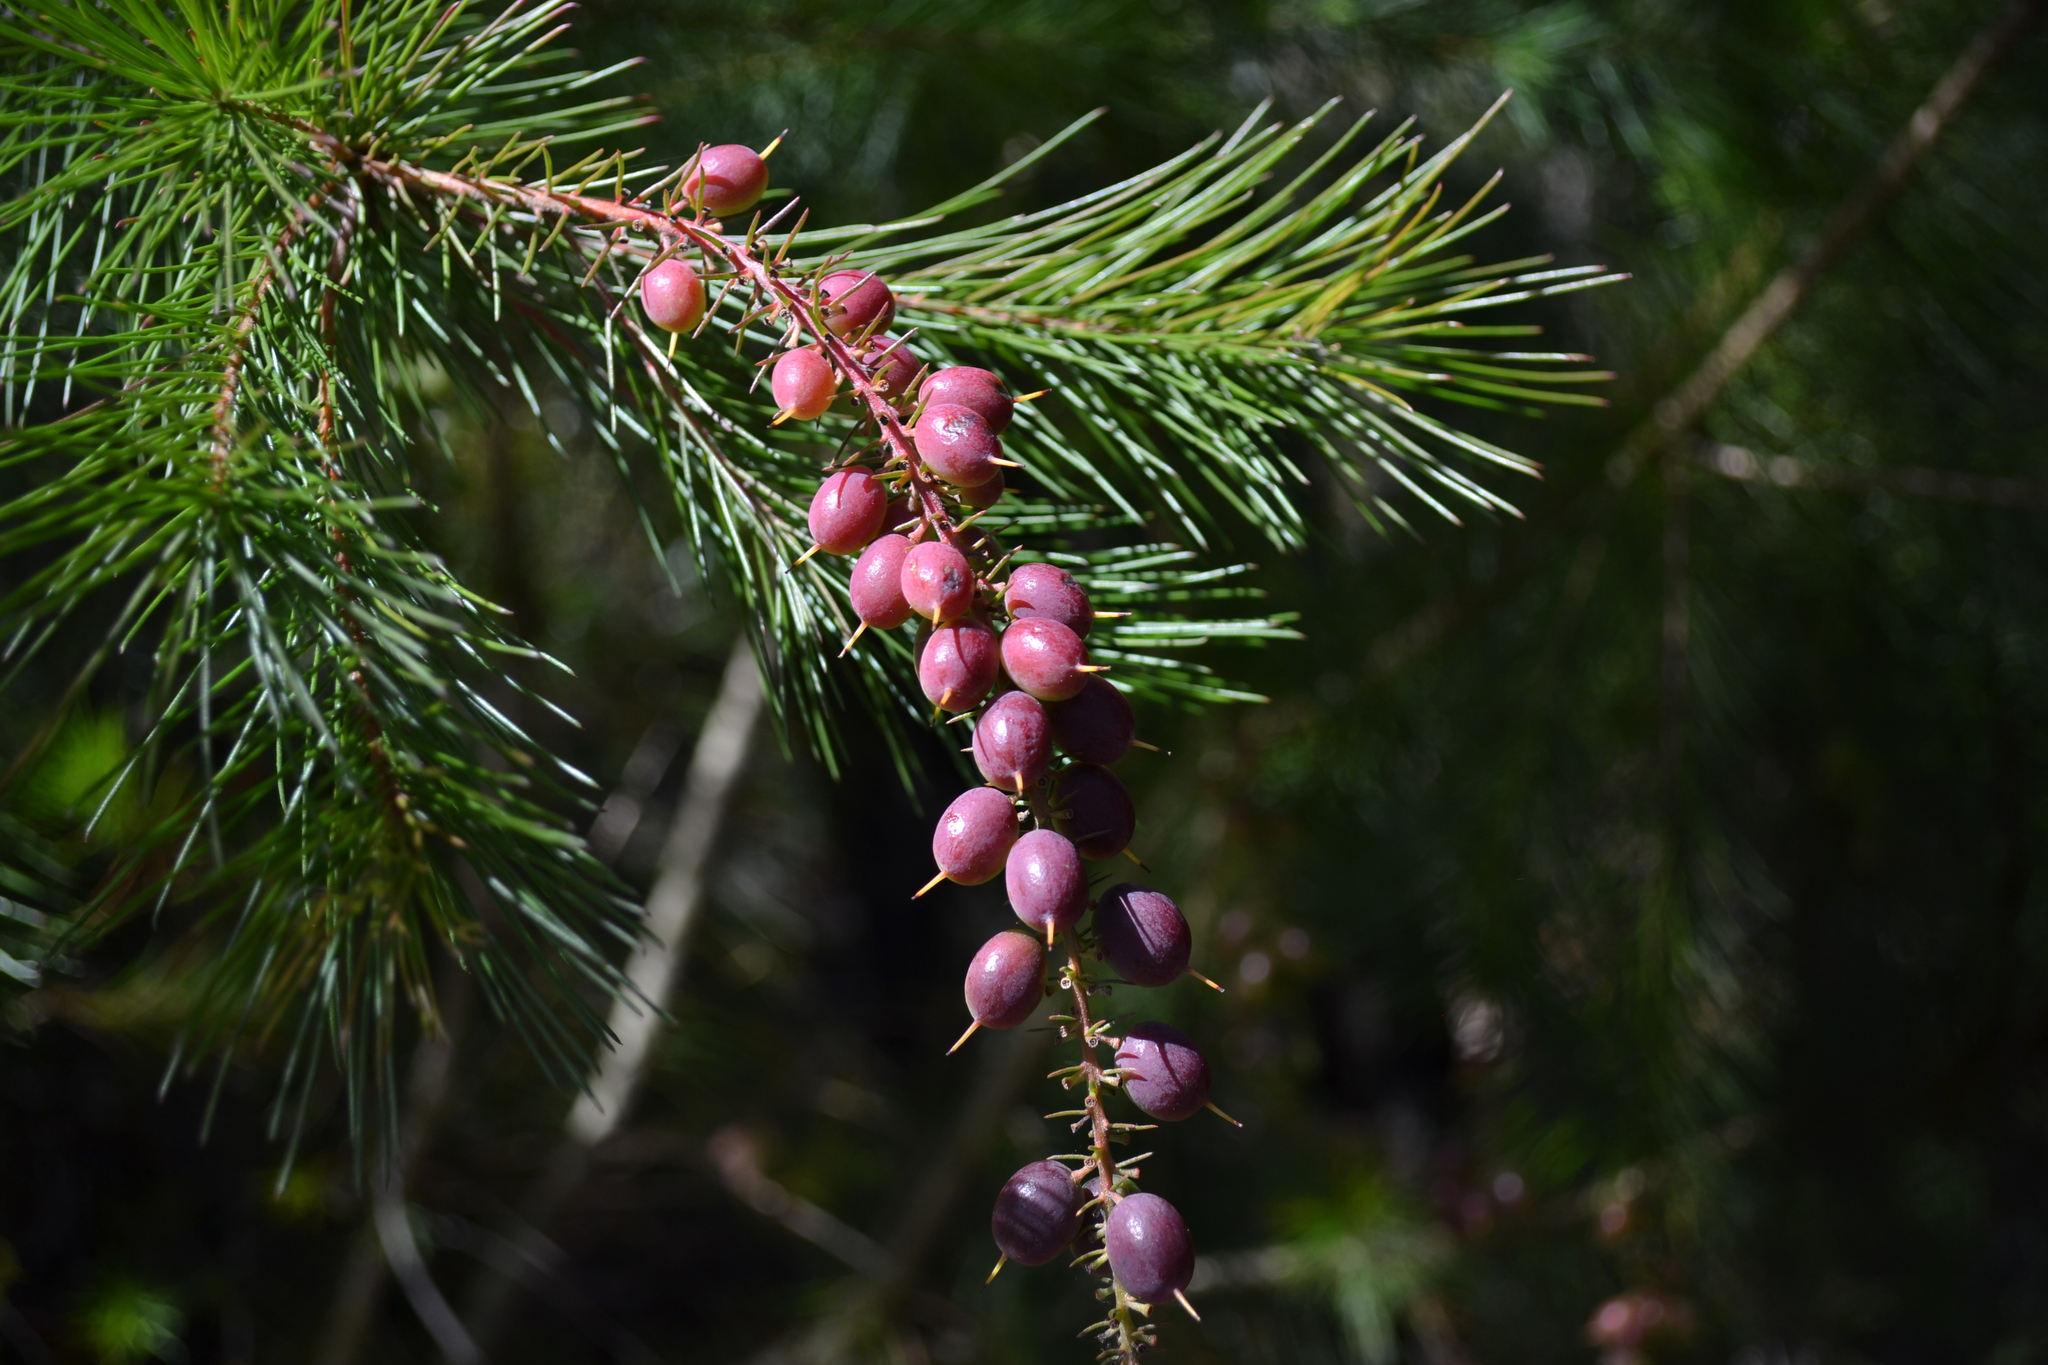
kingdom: Plantae
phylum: Tracheophyta
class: Magnoliopsida
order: Proteales
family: Proteaceae
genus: Persoonia
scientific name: Persoonia pinifolia
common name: Pine-leaf geebung
